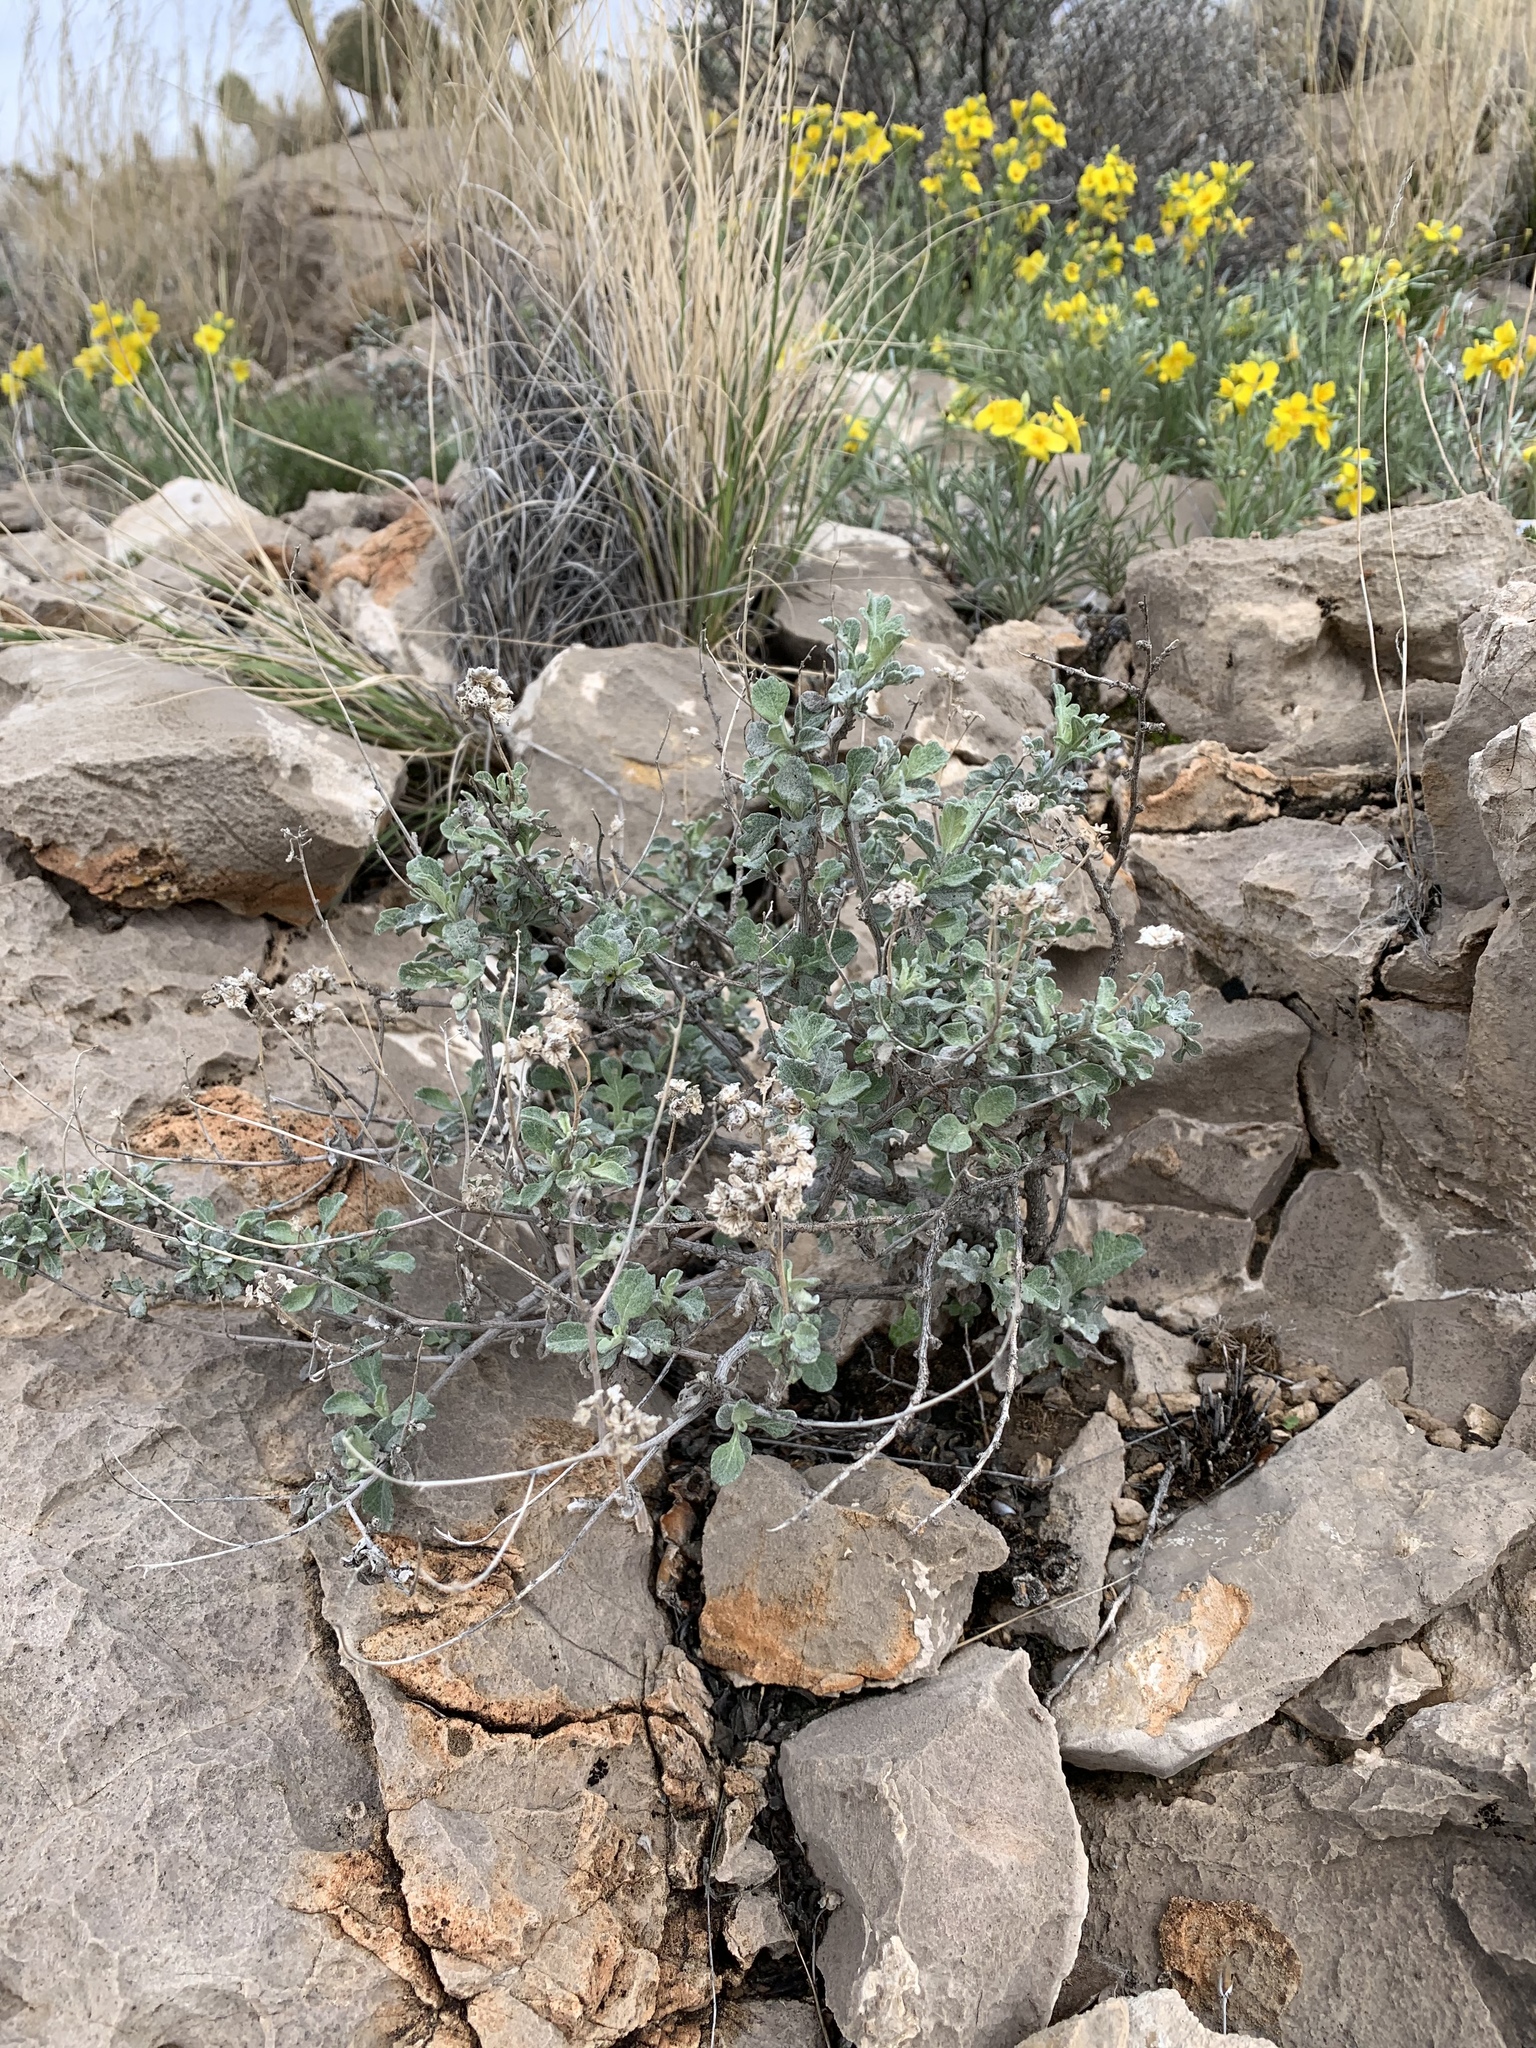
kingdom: Plantae
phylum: Tracheophyta
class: Magnoliopsida
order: Asterales
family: Asteraceae
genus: Parthenium
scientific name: Parthenium incanum
